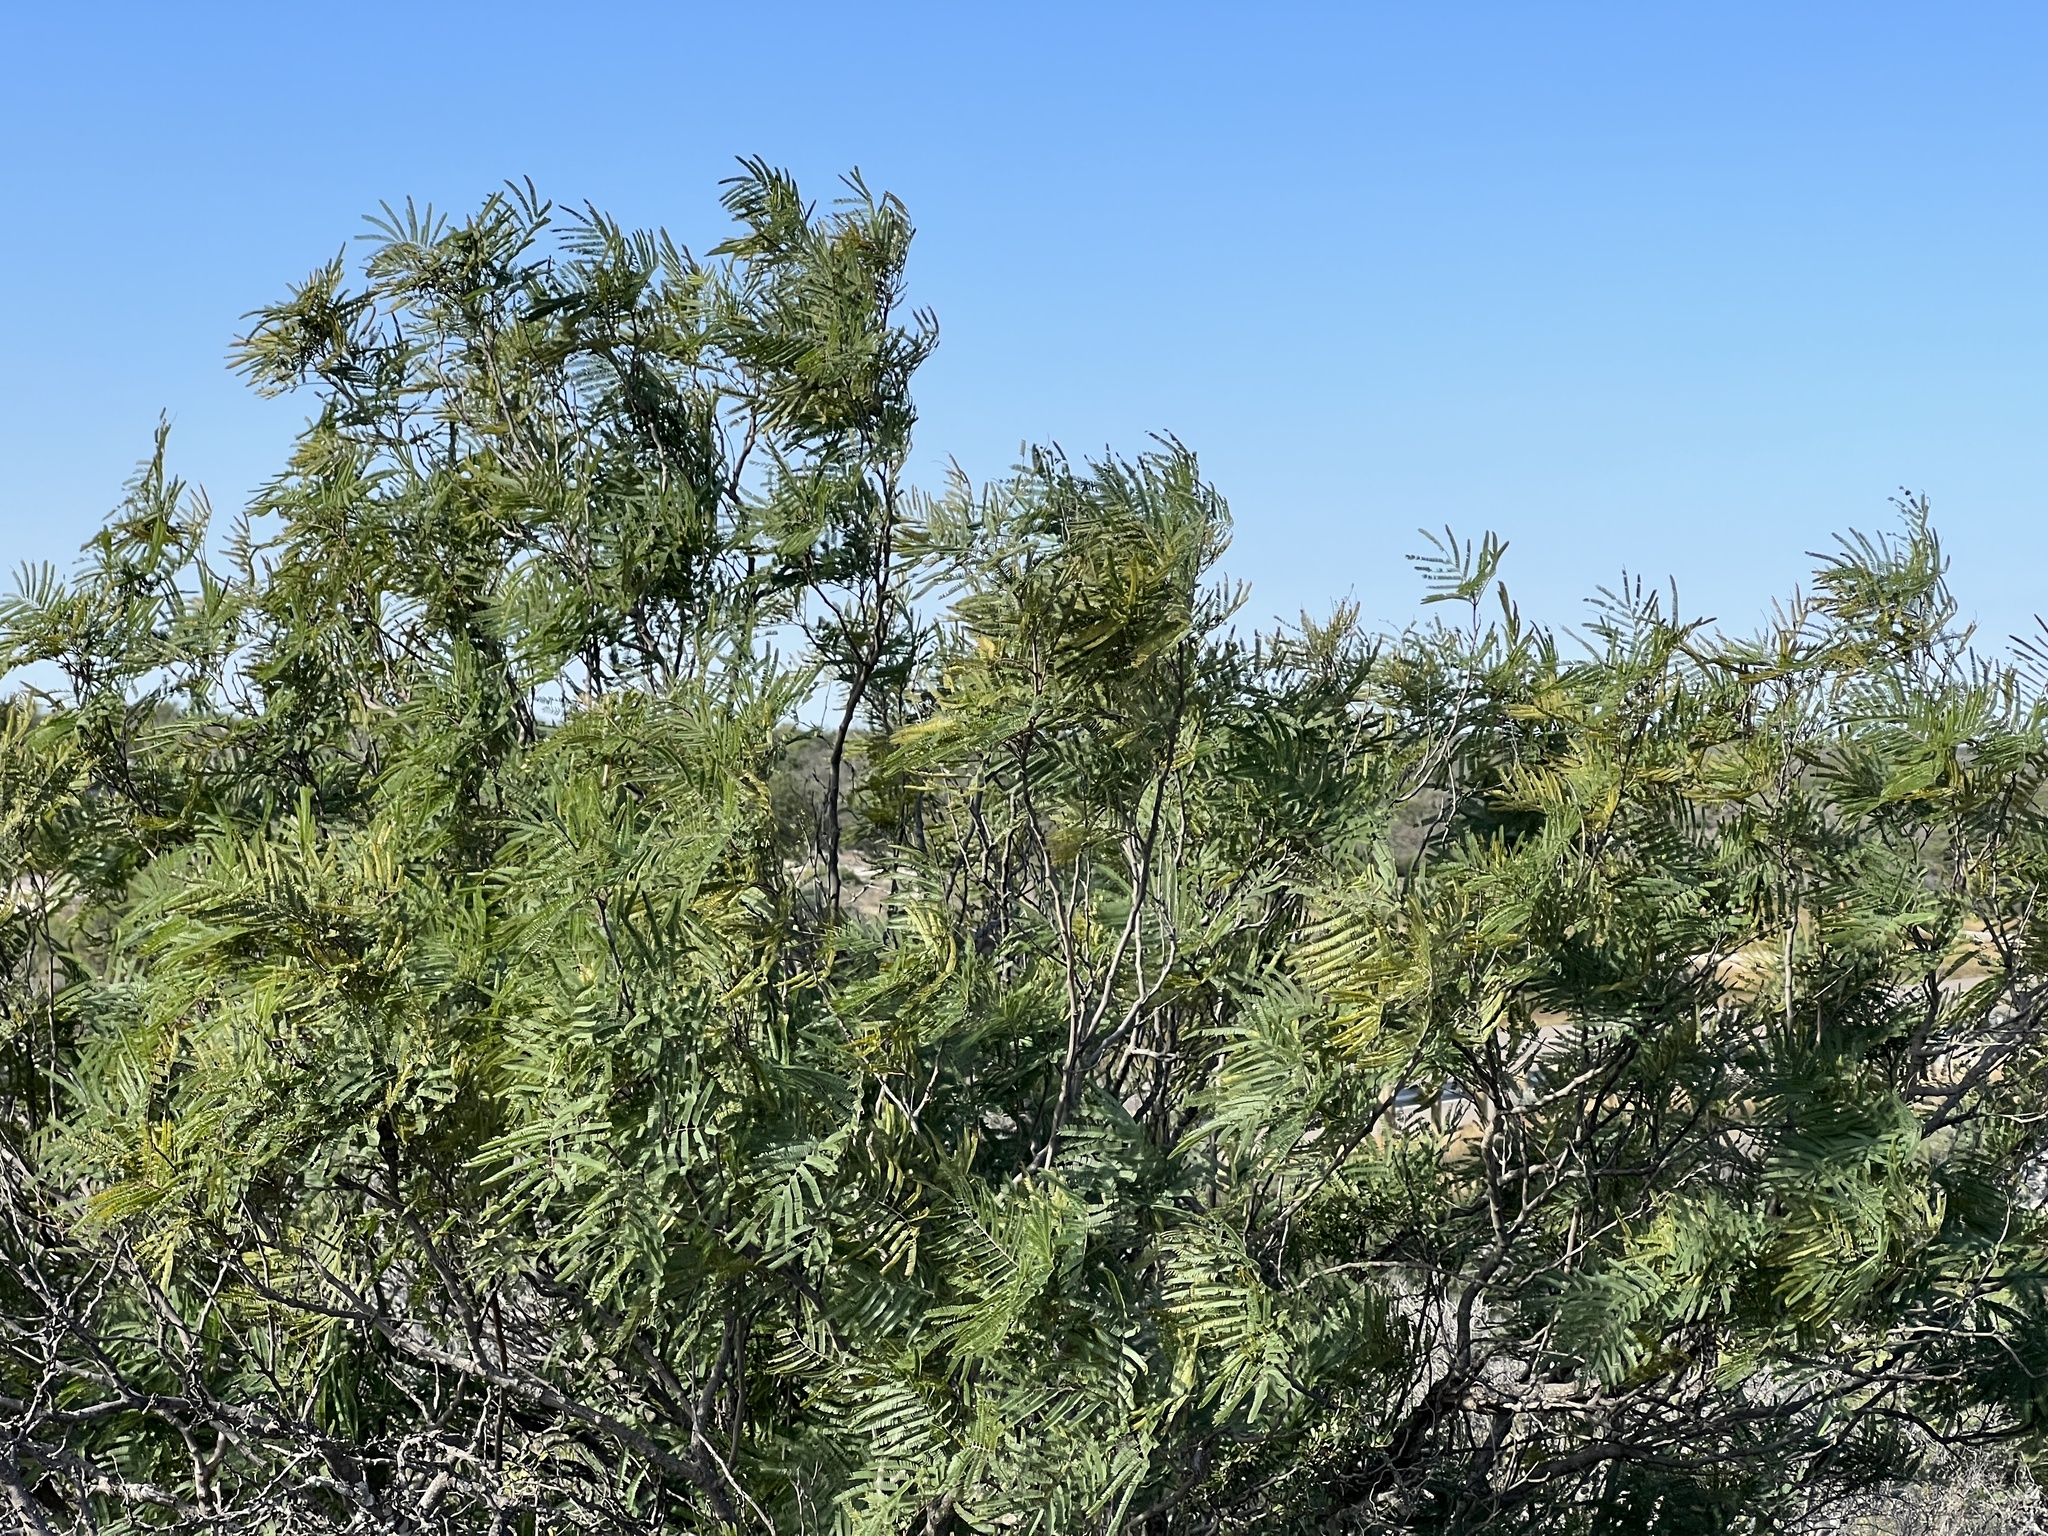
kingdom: Plantae
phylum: Tracheophyta
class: Magnoliopsida
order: Fabales
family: Fabaceae
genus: Senegalia
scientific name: Senegalia berlandieri
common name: Berlandier acacia
